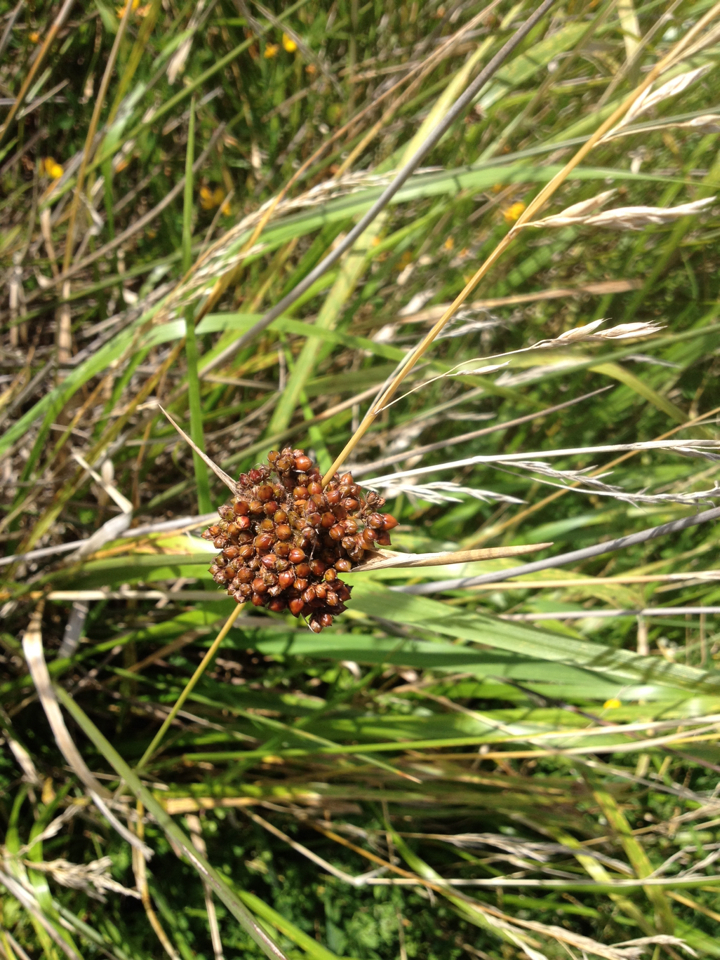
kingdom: Plantae
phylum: Tracheophyta
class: Liliopsida
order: Poales
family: Juncaceae
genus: Juncus
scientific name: Juncus acutus
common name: Sharp rush
